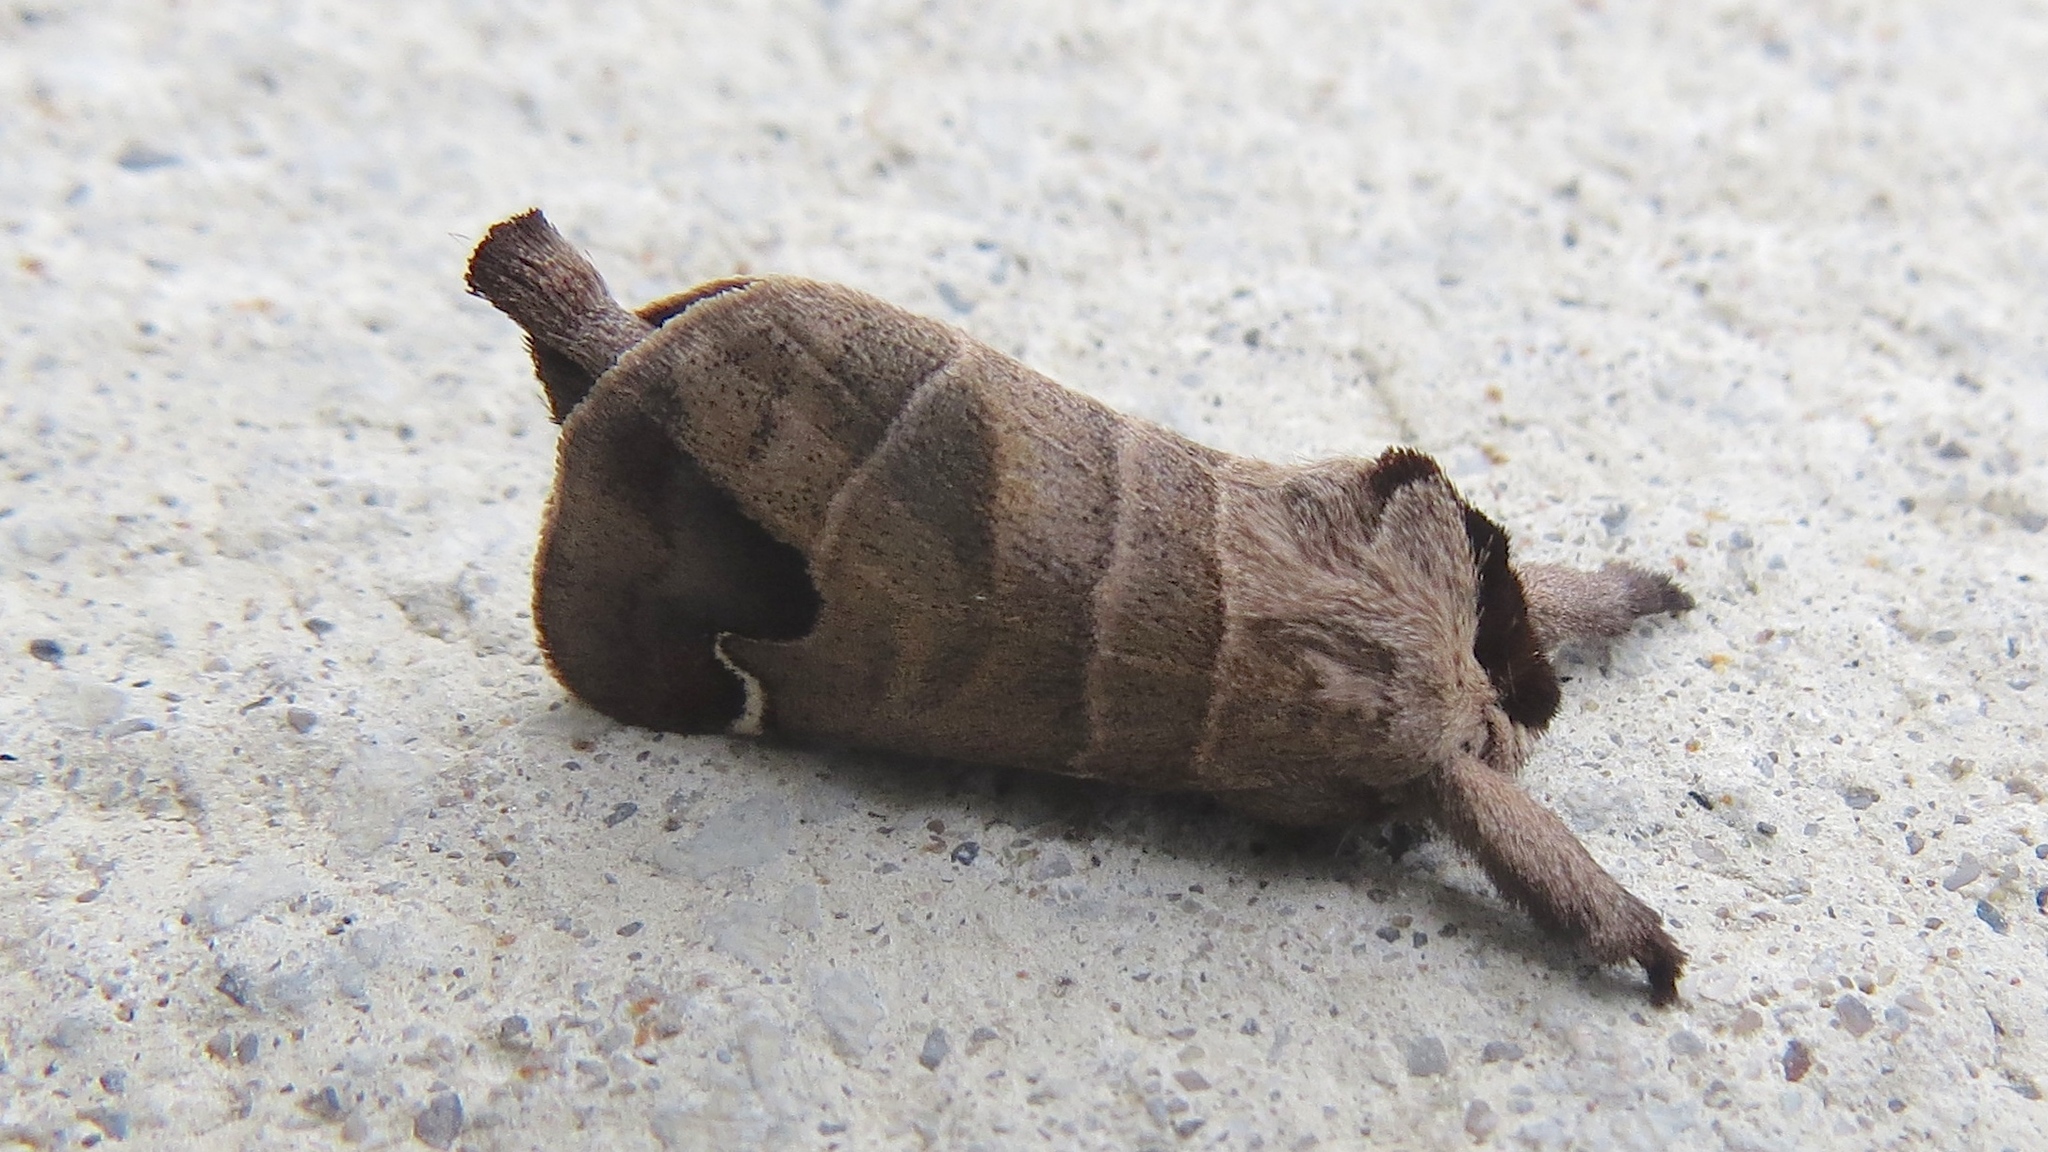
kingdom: Animalia
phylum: Arthropoda
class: Insecta
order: Lepidoptera
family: Notodontidae
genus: Clostera
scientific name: Clostera albosigma
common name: Sigmoid prominent
